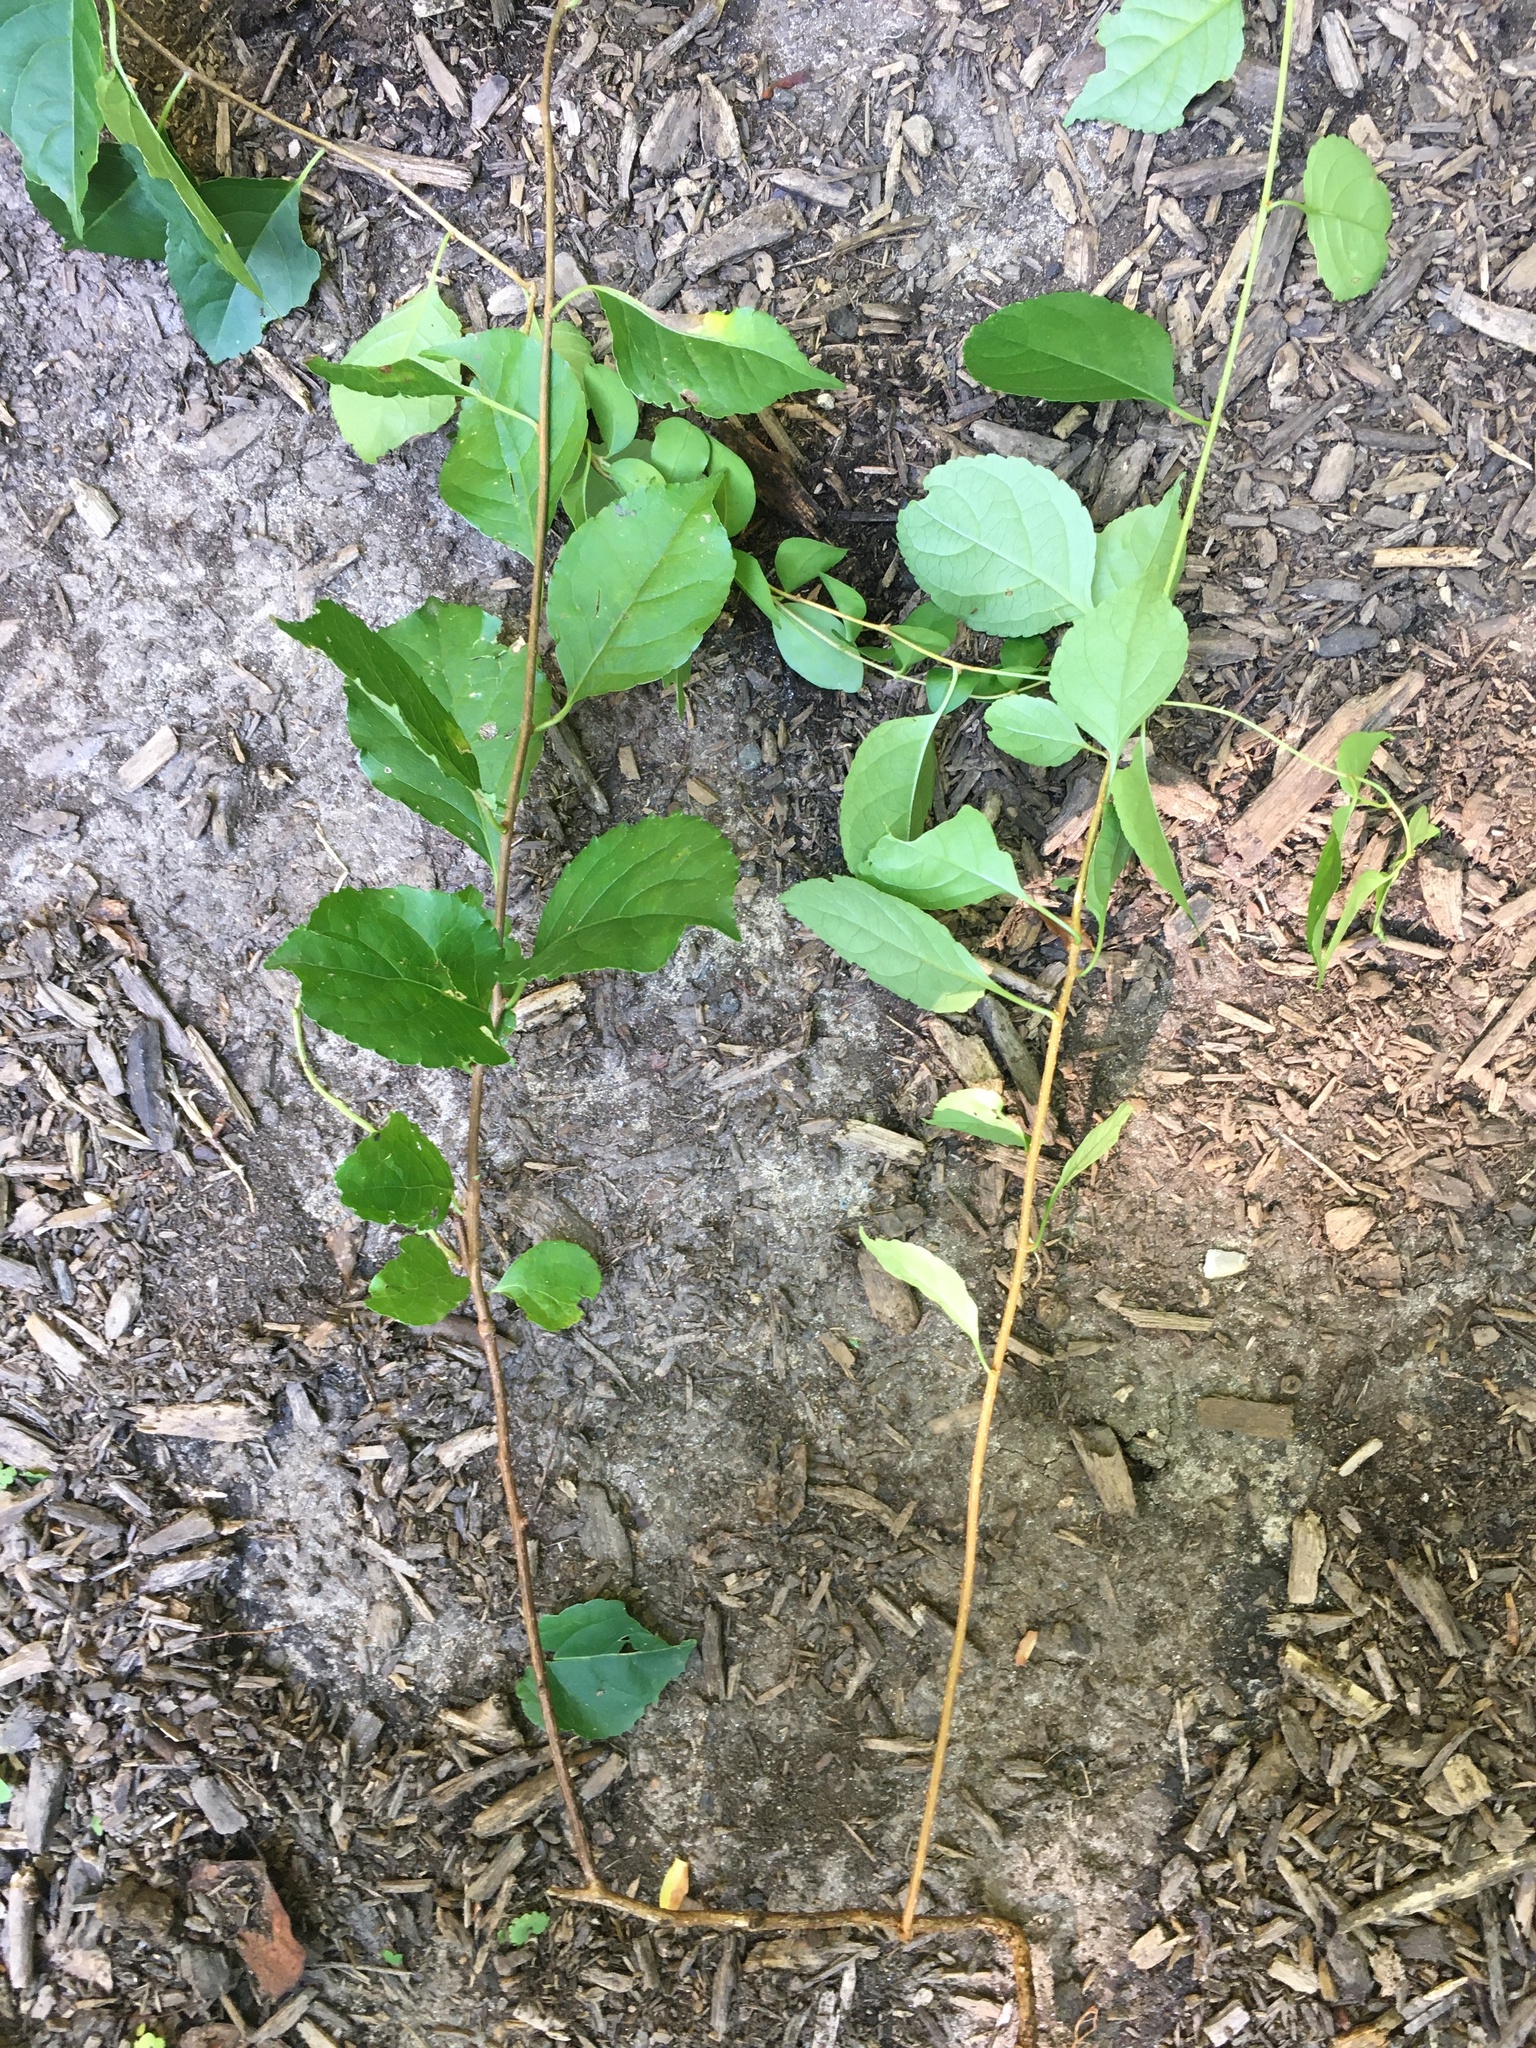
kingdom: Plantae
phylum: Tracheophyta
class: Magnoliopsida
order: Celastrales
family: Celastraceae
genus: Celastrus
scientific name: Celastrus orbiculatus
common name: Oriental bittersweet
